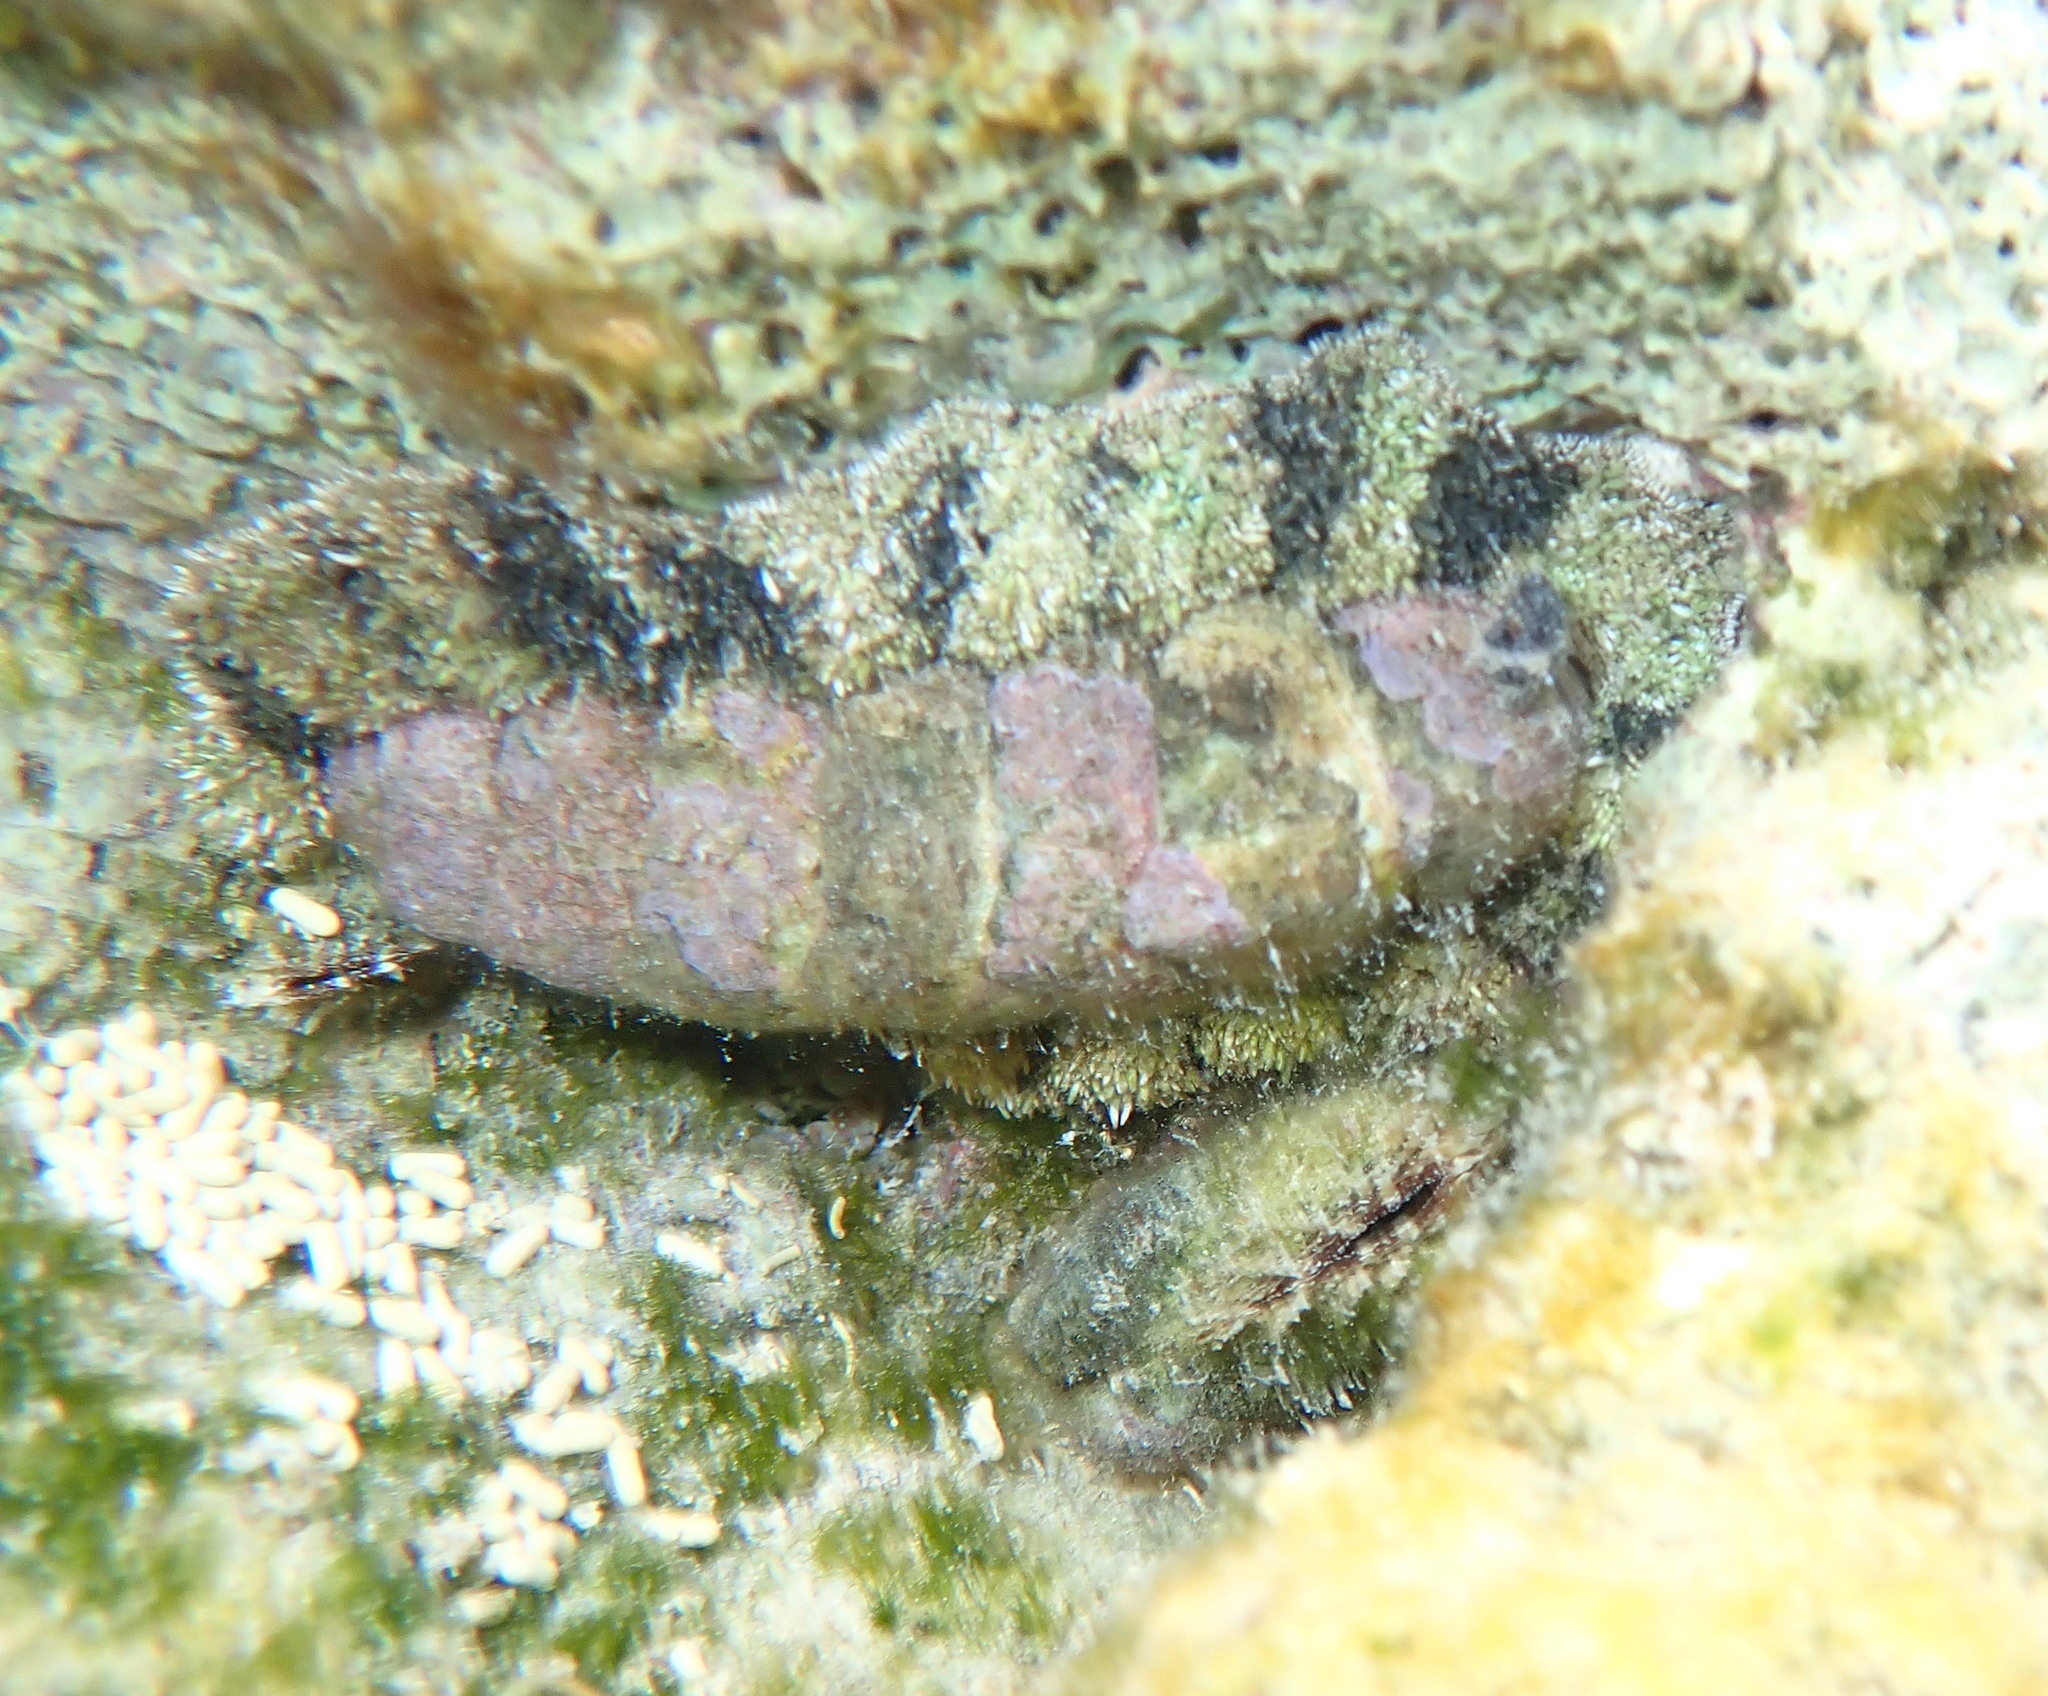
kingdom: Animalia
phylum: Mollusca
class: Polyplacophora
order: Chitonida
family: Chitonidae
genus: Acanthopleura
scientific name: Acanthopleura granulata
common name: West indian fuzzy chiton
